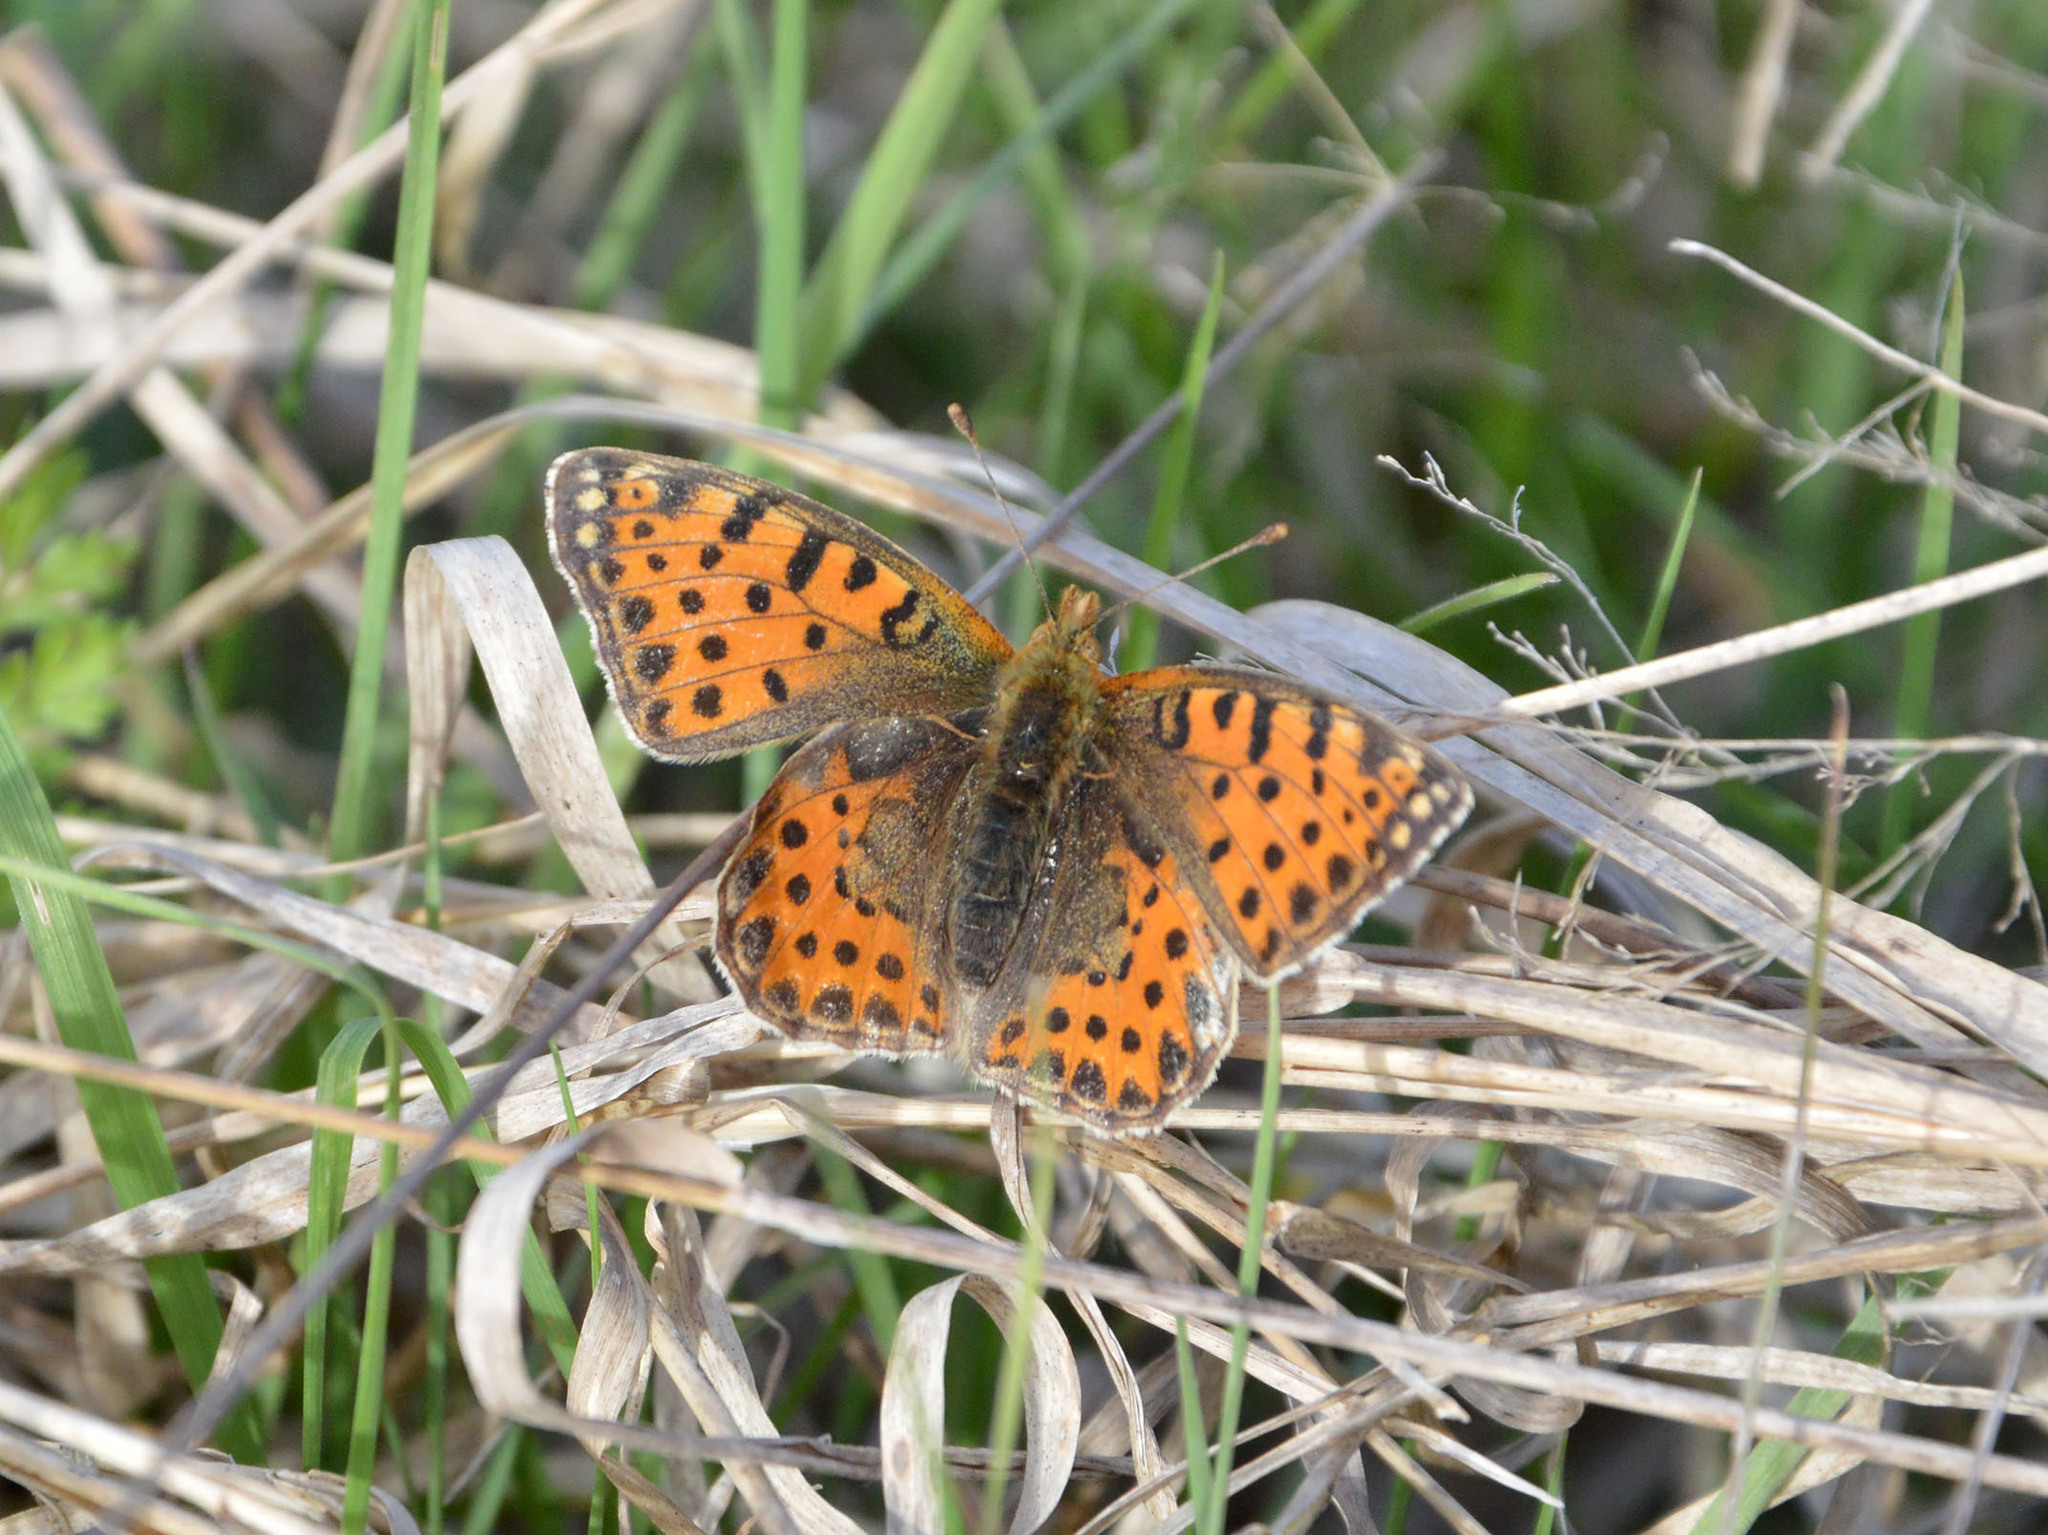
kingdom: Animalia
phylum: Arthropoda
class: Insecta
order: Lepidoptera
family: Nymphalidae
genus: Issoria
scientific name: Issoria lathonia
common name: Queen of spain fritillary
